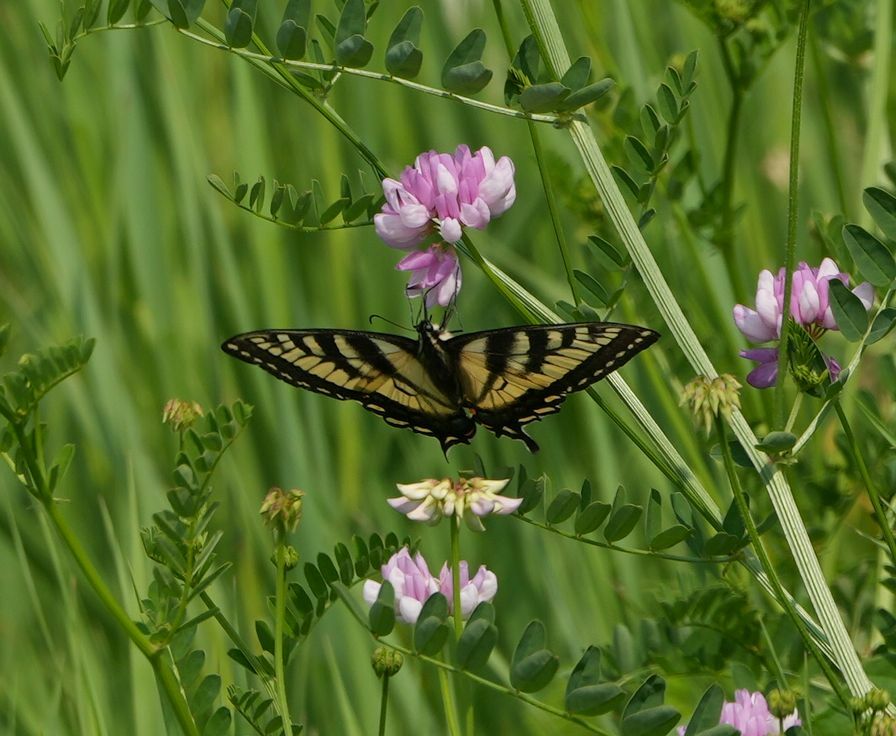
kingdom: Animalia
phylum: Arthropoda
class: Insecta
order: Lepidoptera
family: Papilionidae
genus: Papilio
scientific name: Papilio canadensis
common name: Canadian tiger swallowtail
